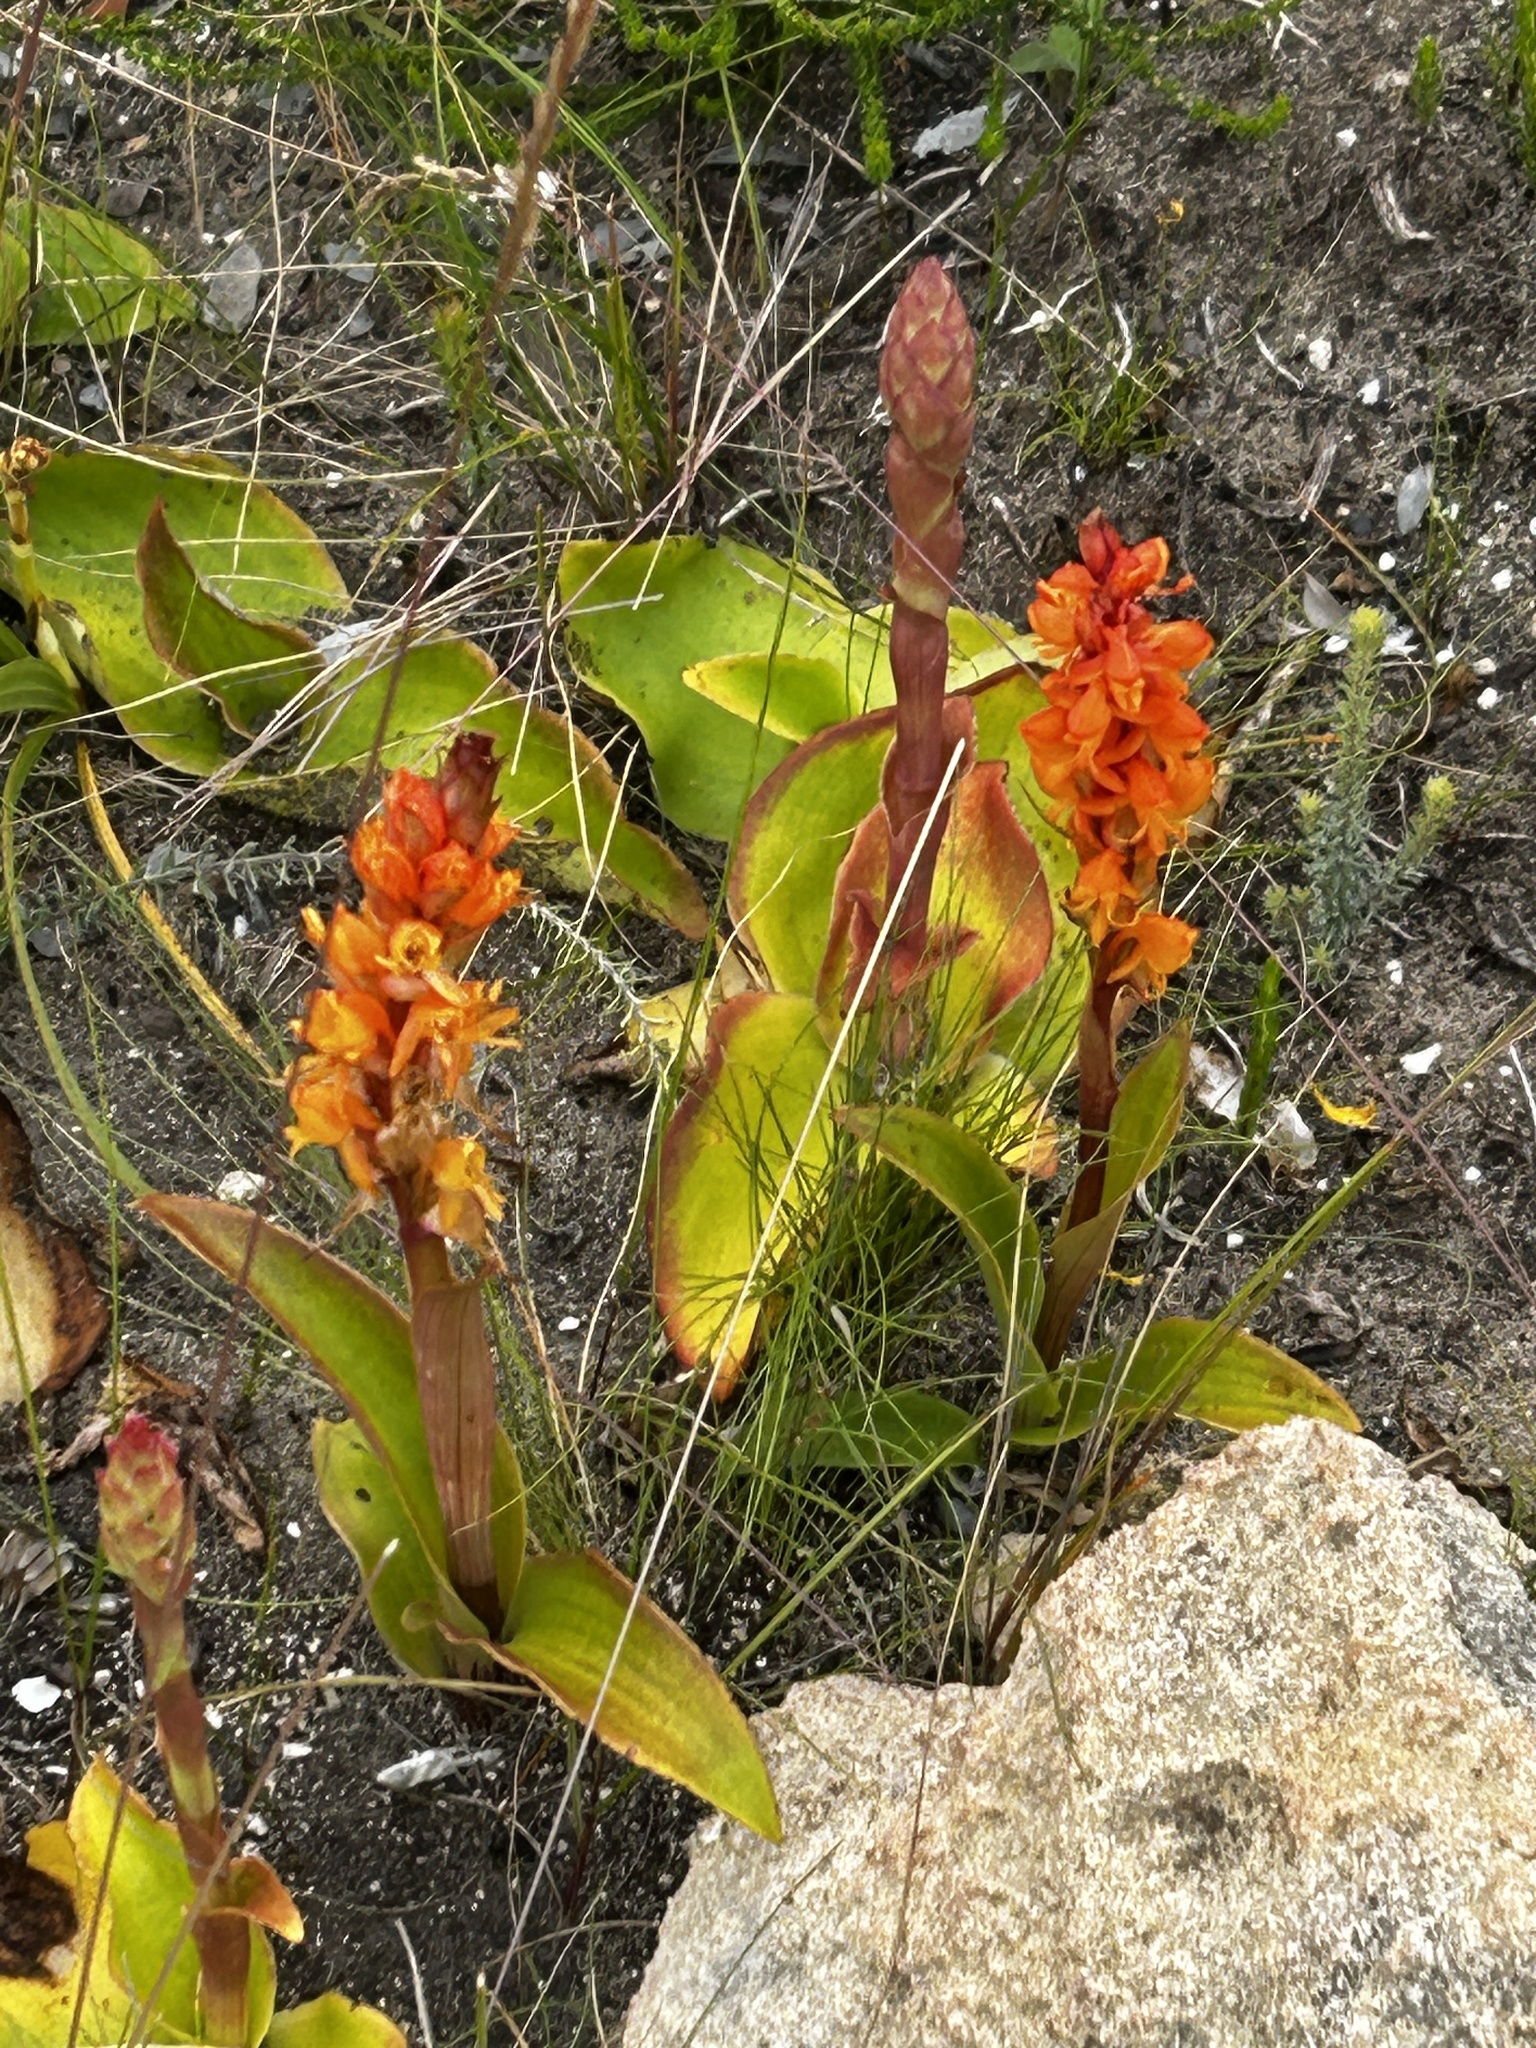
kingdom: Plantae
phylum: Tracheophyta
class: Liliopsida
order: Asparagales
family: Orchidaceae
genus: Satyrium
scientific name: Satyrium coriifolium
